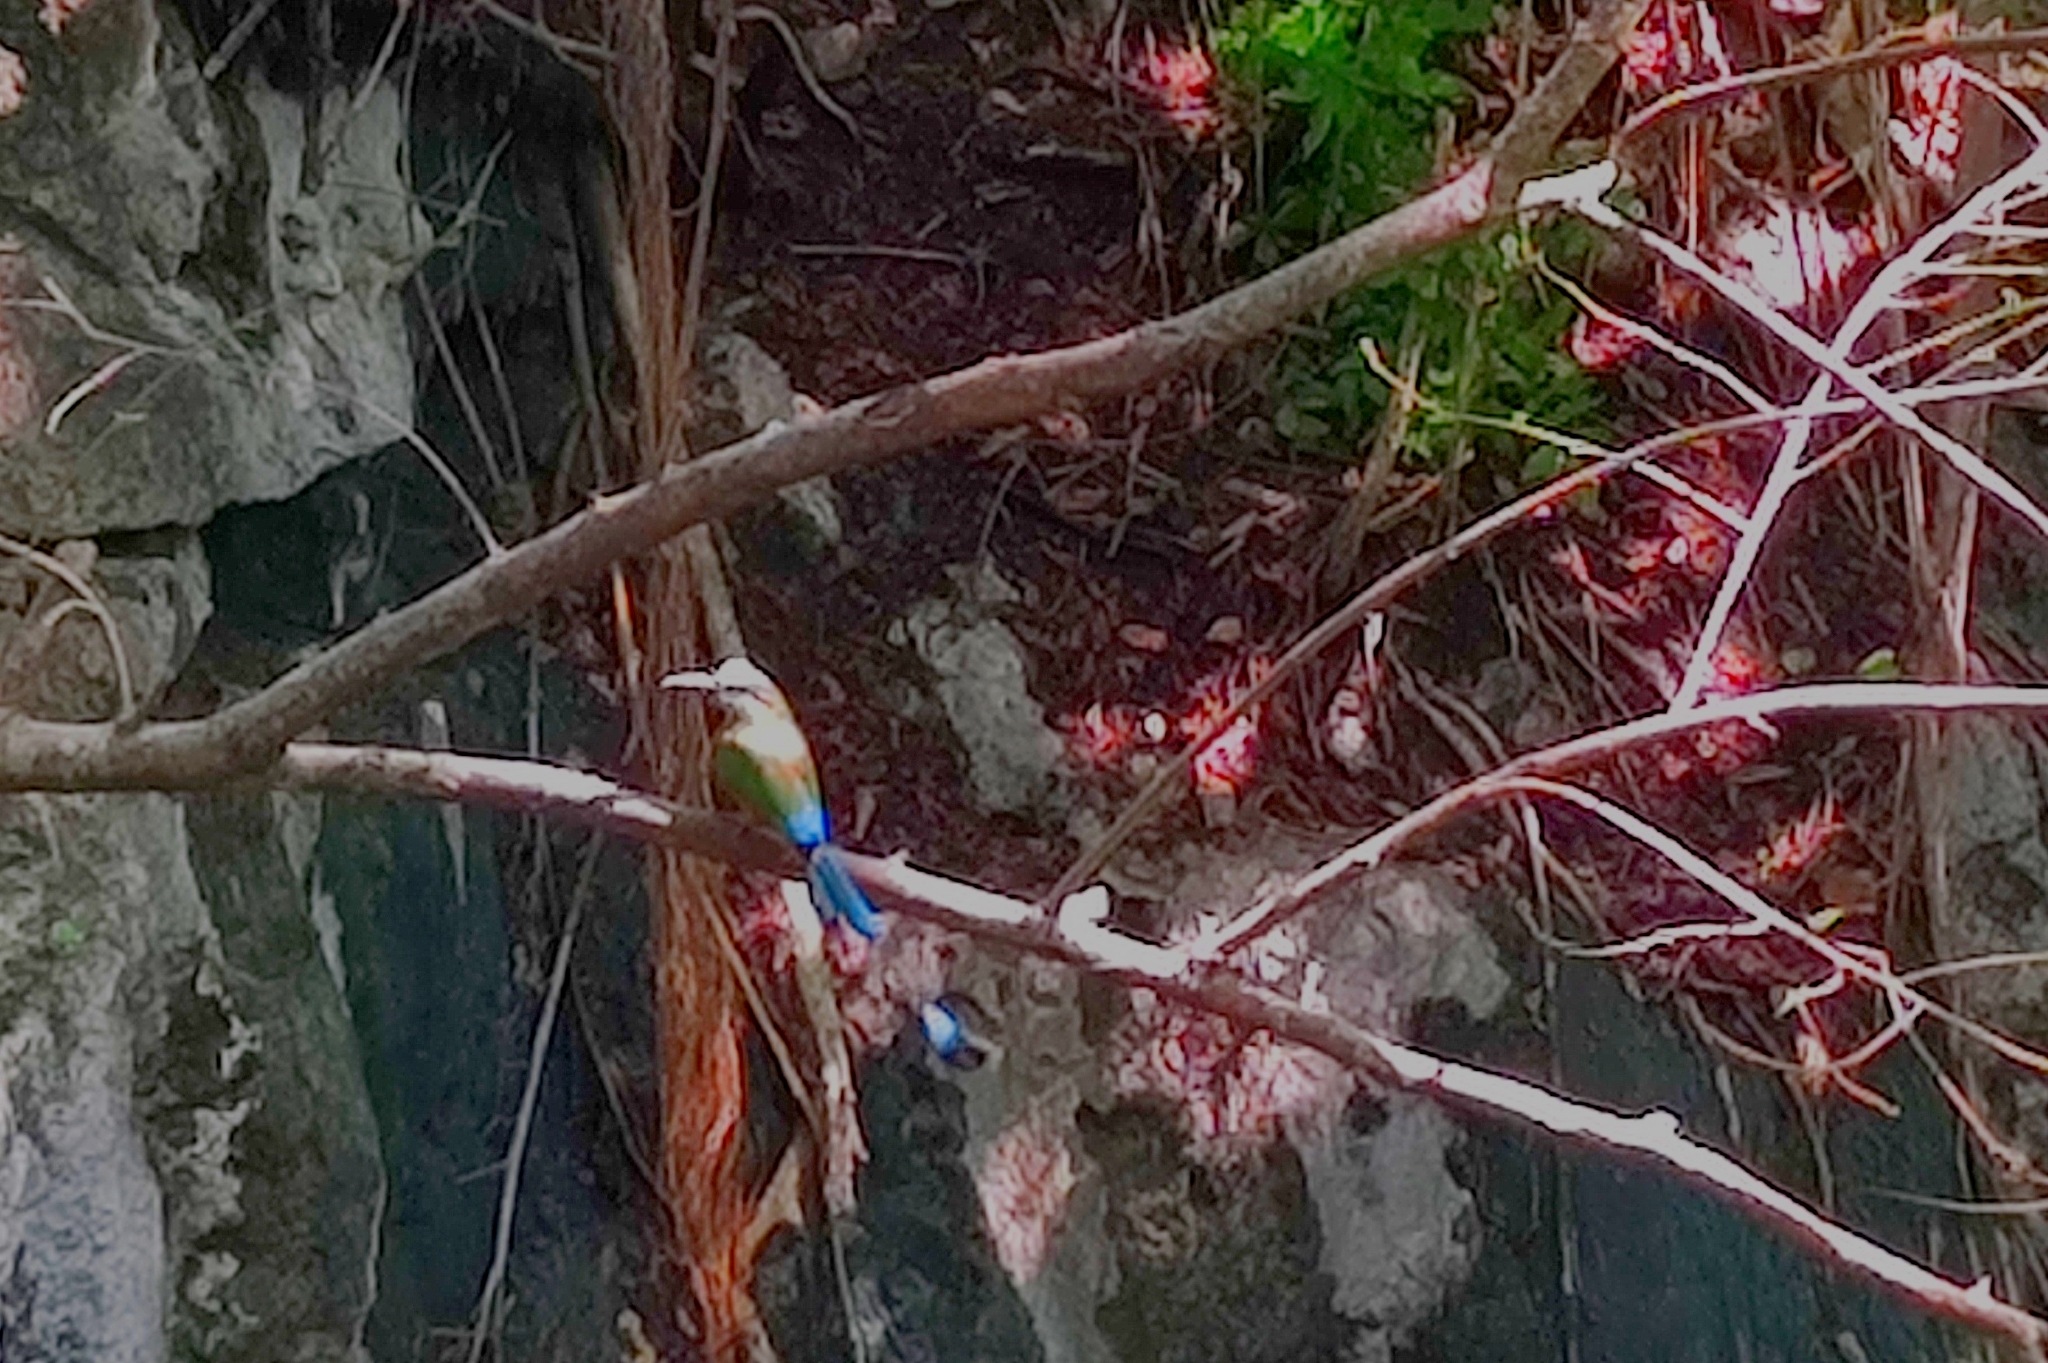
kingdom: Animalia
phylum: Chordata
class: Aves
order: Coraciiformes
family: Momotidae
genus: Eumomota
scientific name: Eumomota superciliosa
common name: Turquoise-browed motmot
